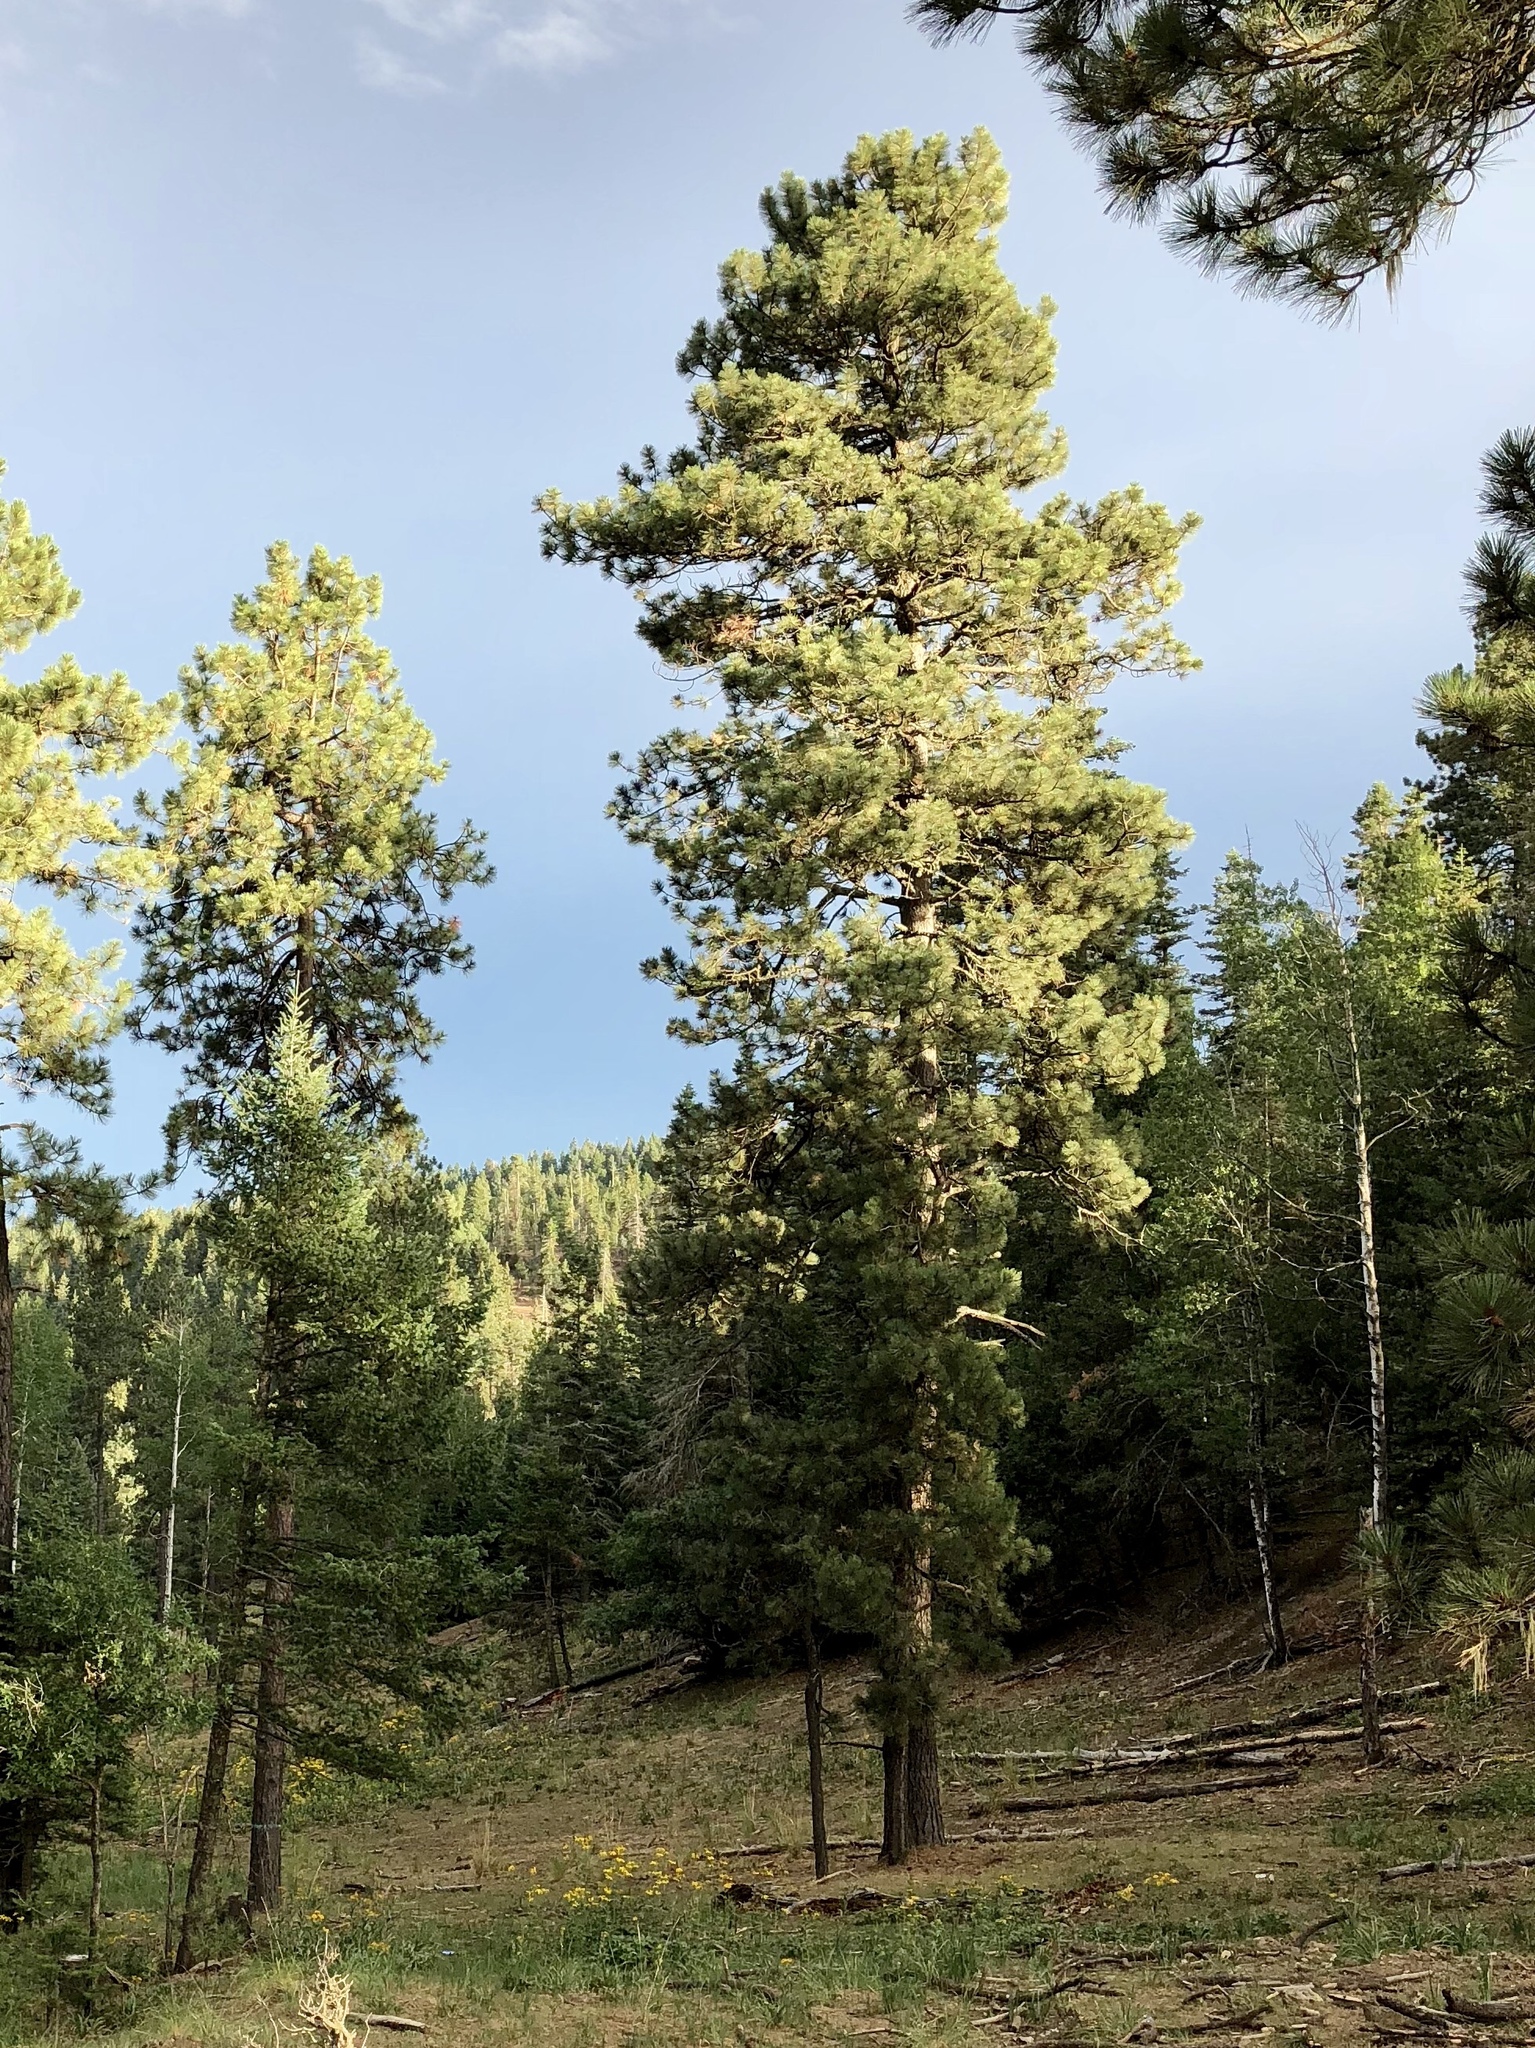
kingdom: Plantae
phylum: Tracheophyta
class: Pinopsida
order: Pinales
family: Pinaceae
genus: Pinus
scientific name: Pinus ponderosa
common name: Western yellow-pine
